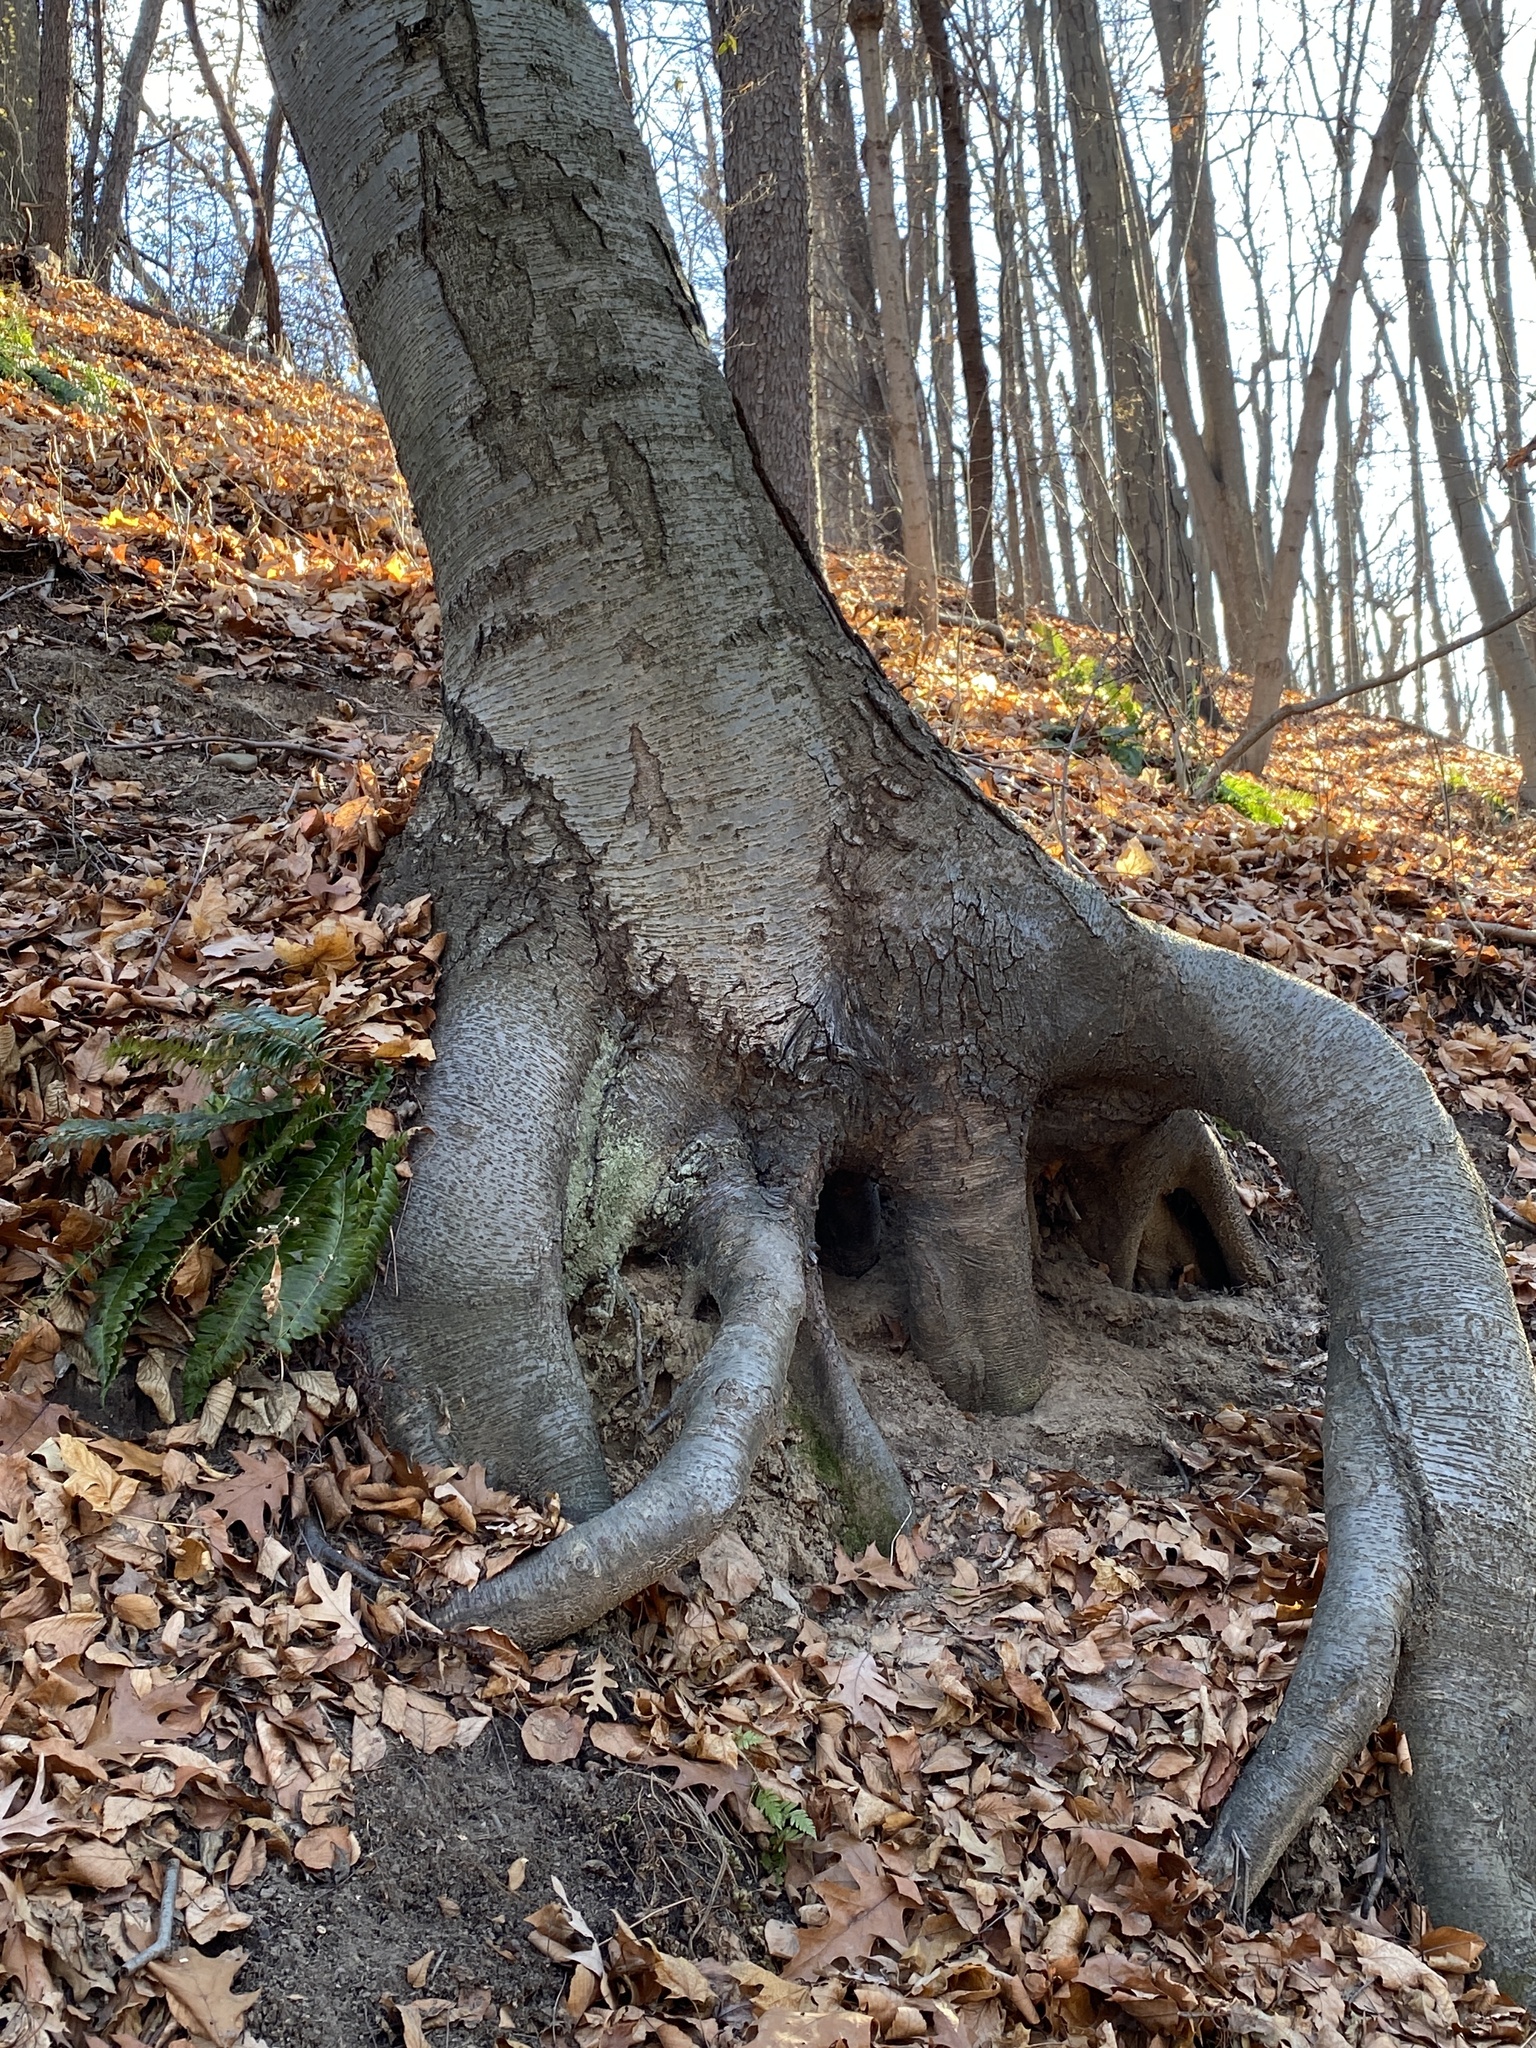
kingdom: Plantae
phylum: Tracheophyta
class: Magnoliopsida
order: Fagales
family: Betulaceae
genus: Betula
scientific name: Betula lenta
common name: Black birch
